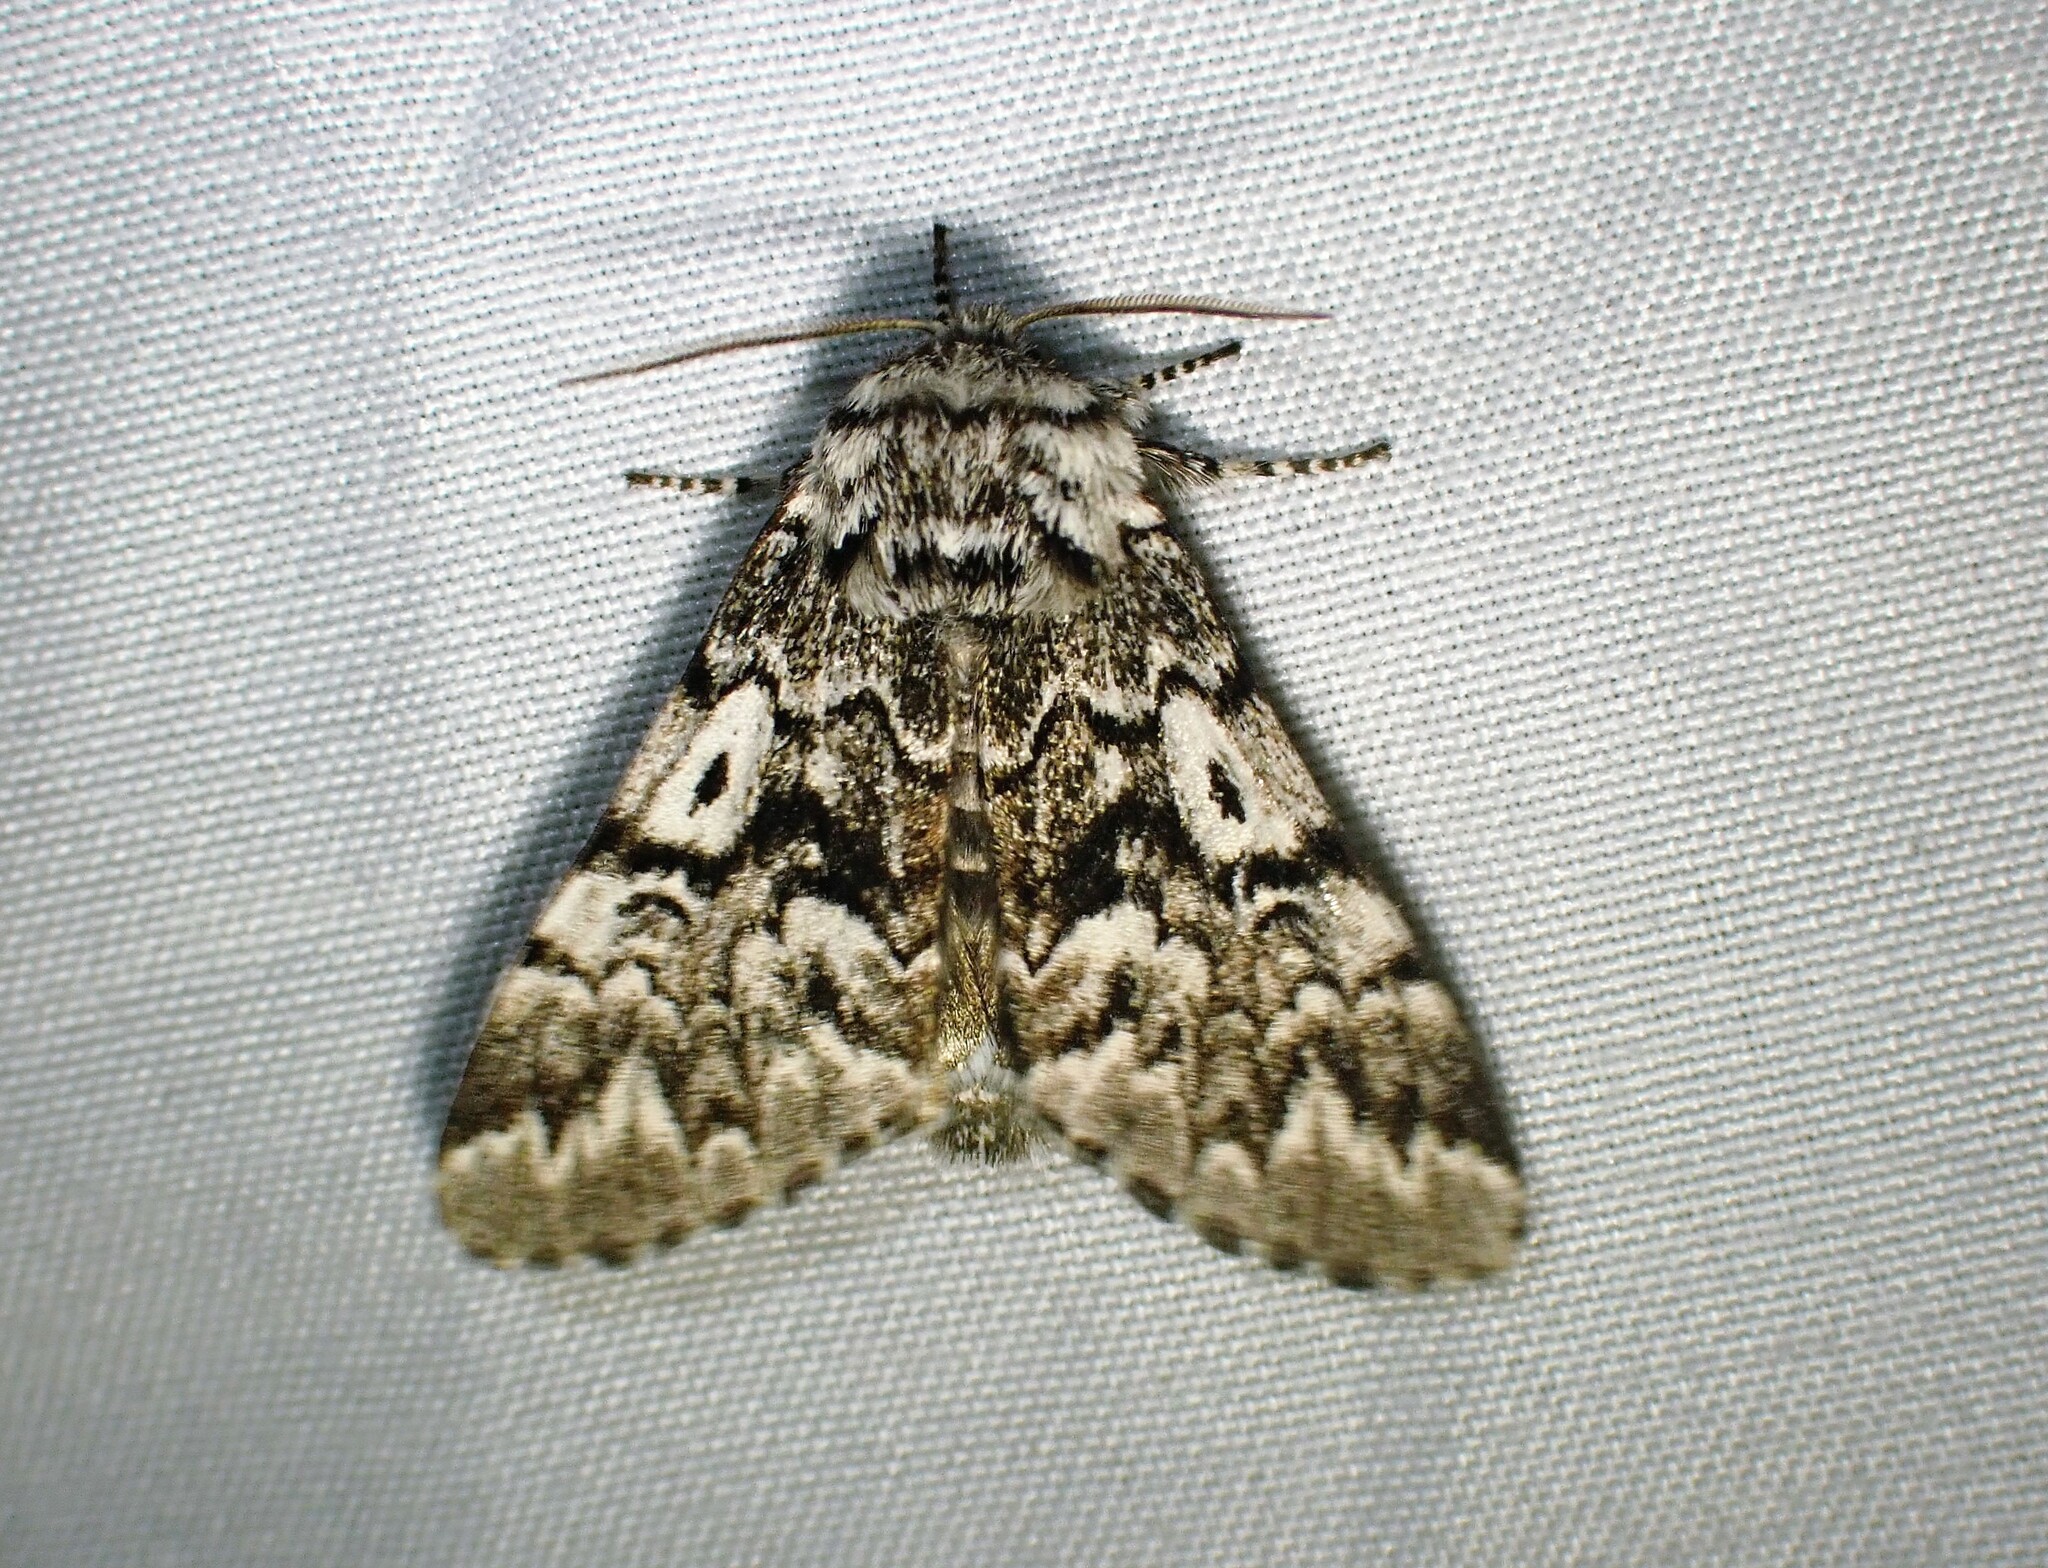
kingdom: Animalia
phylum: Arthropoda
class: Insecta
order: Lepidoptera
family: Noctuidae
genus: Panthea
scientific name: Panthea acronyctoides
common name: Black zigzag moth
